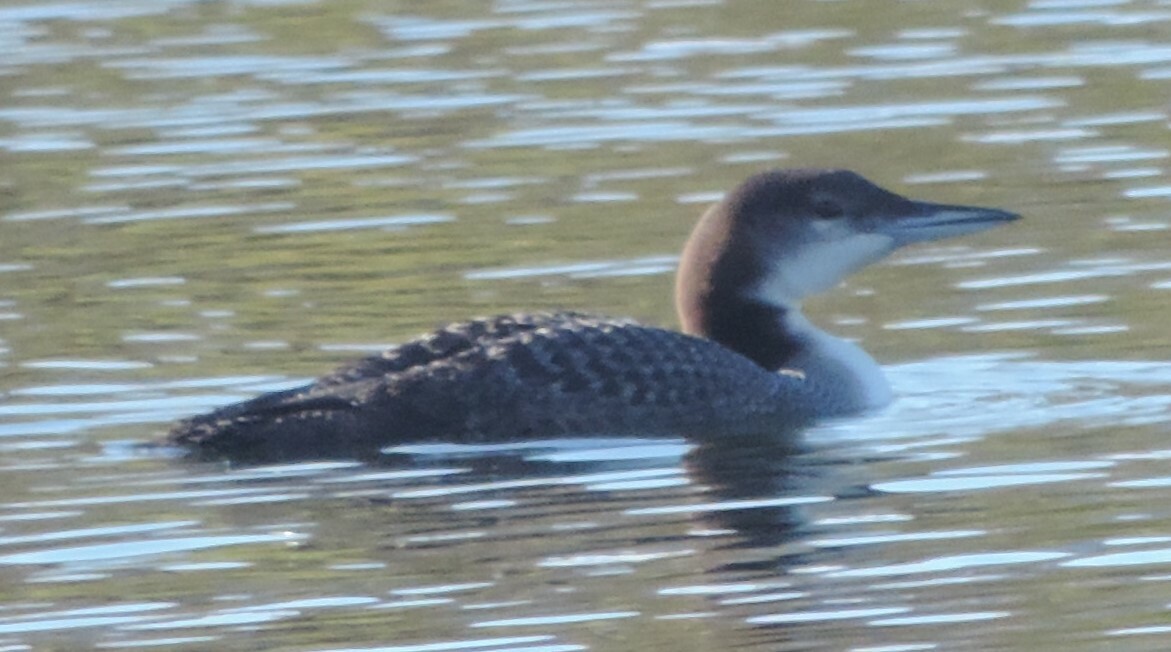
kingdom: Animalia
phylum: Chordata
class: Aves
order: Gaviiformes
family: Gaviidae
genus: Gavia
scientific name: Gavia immer
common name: Common loon
